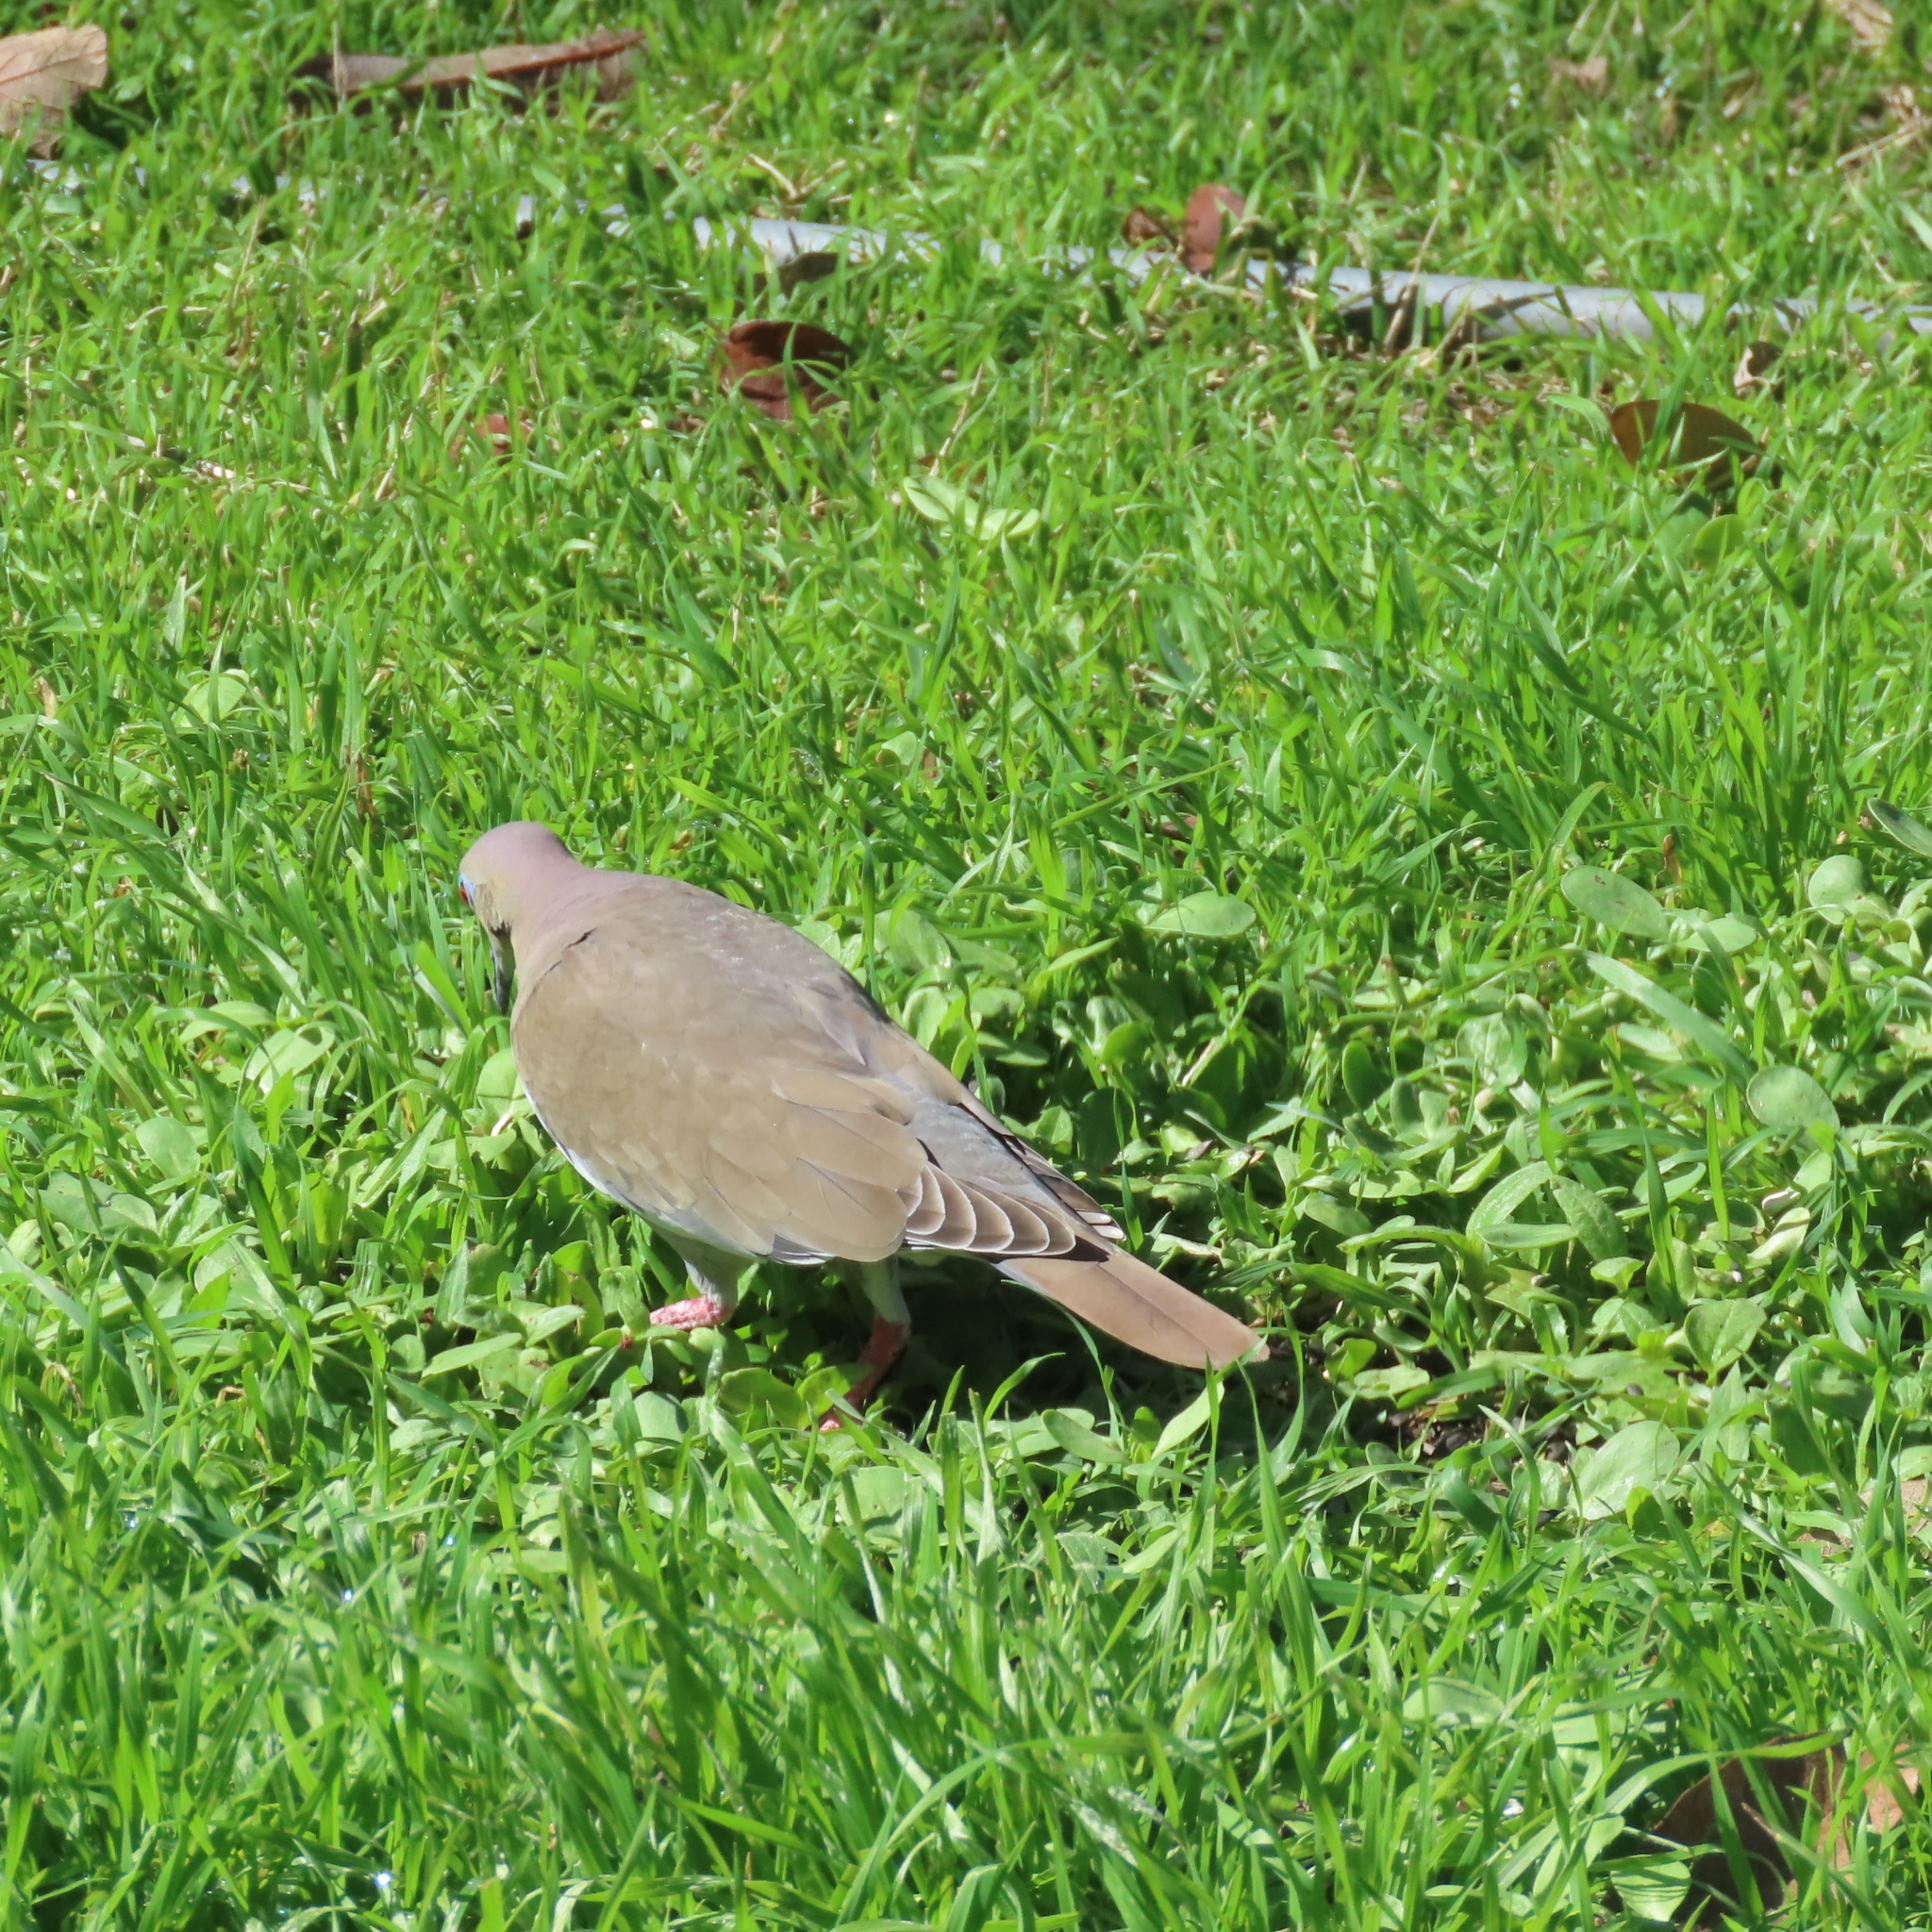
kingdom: Animalia
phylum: Chordata
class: Aves
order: Columbiformes
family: Columbidae
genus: Zenaida
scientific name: Zenaida asiatica
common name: White-winged dove
